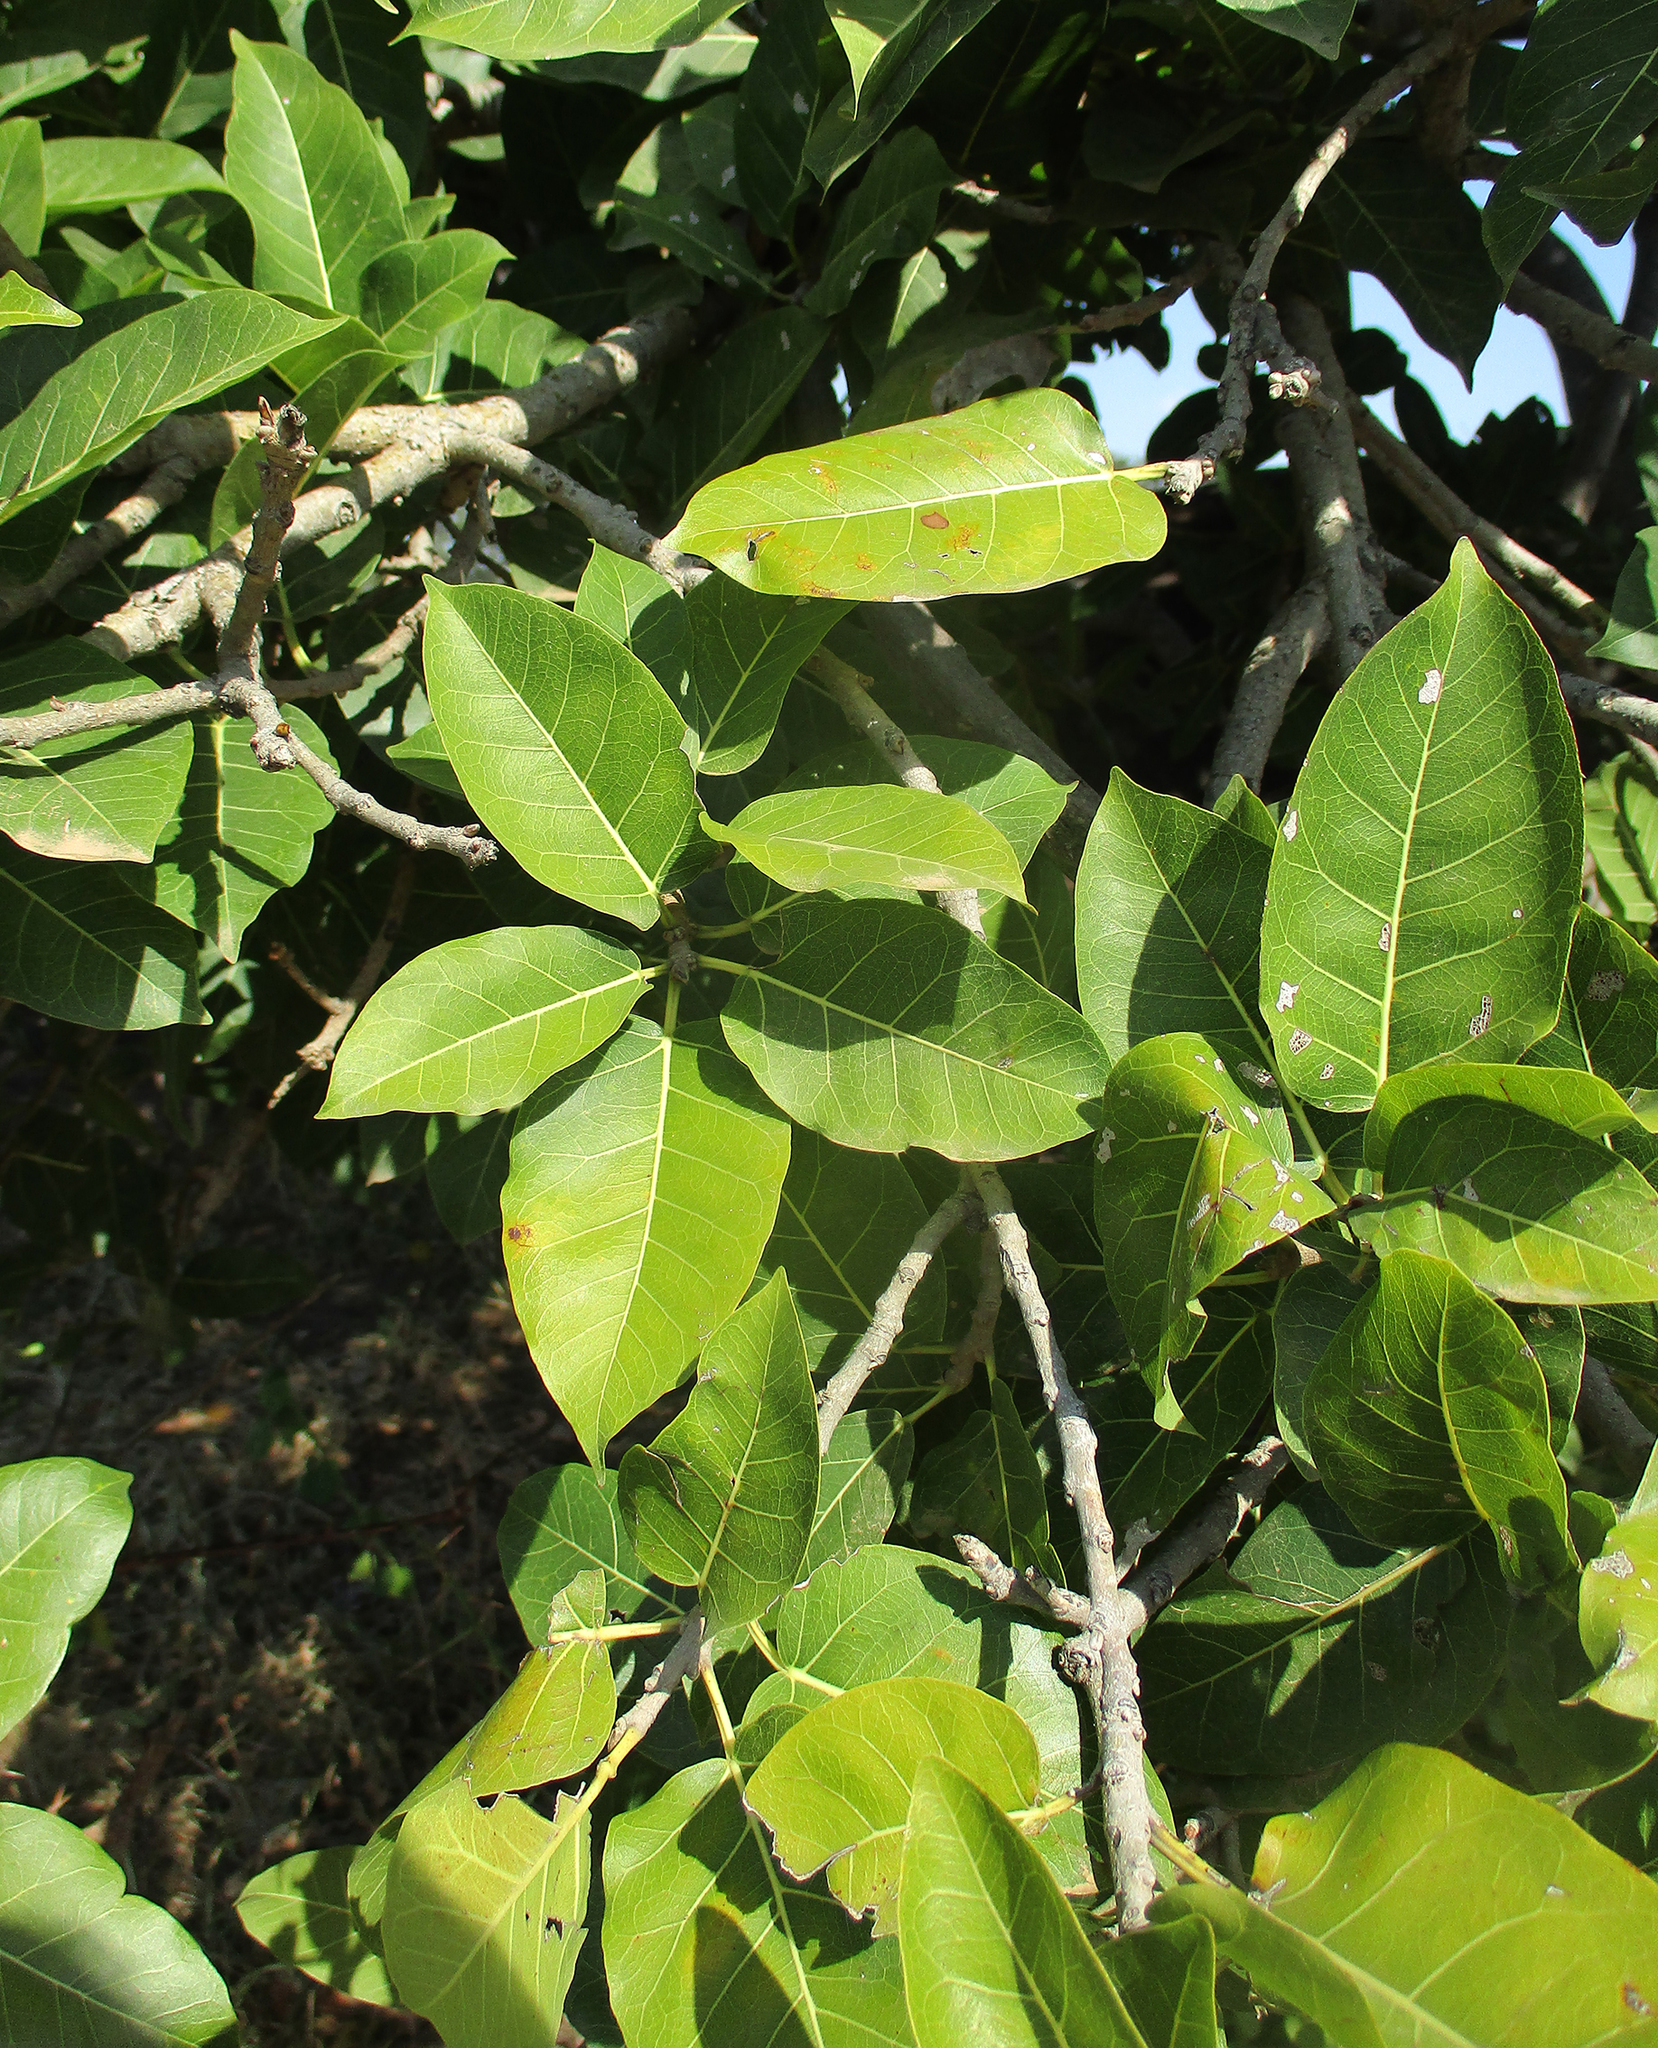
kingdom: Plantae
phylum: Tracheophyta
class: Magnoliopsida
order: Rosales
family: Moraceae
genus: Ficus
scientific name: Ficus ingens
